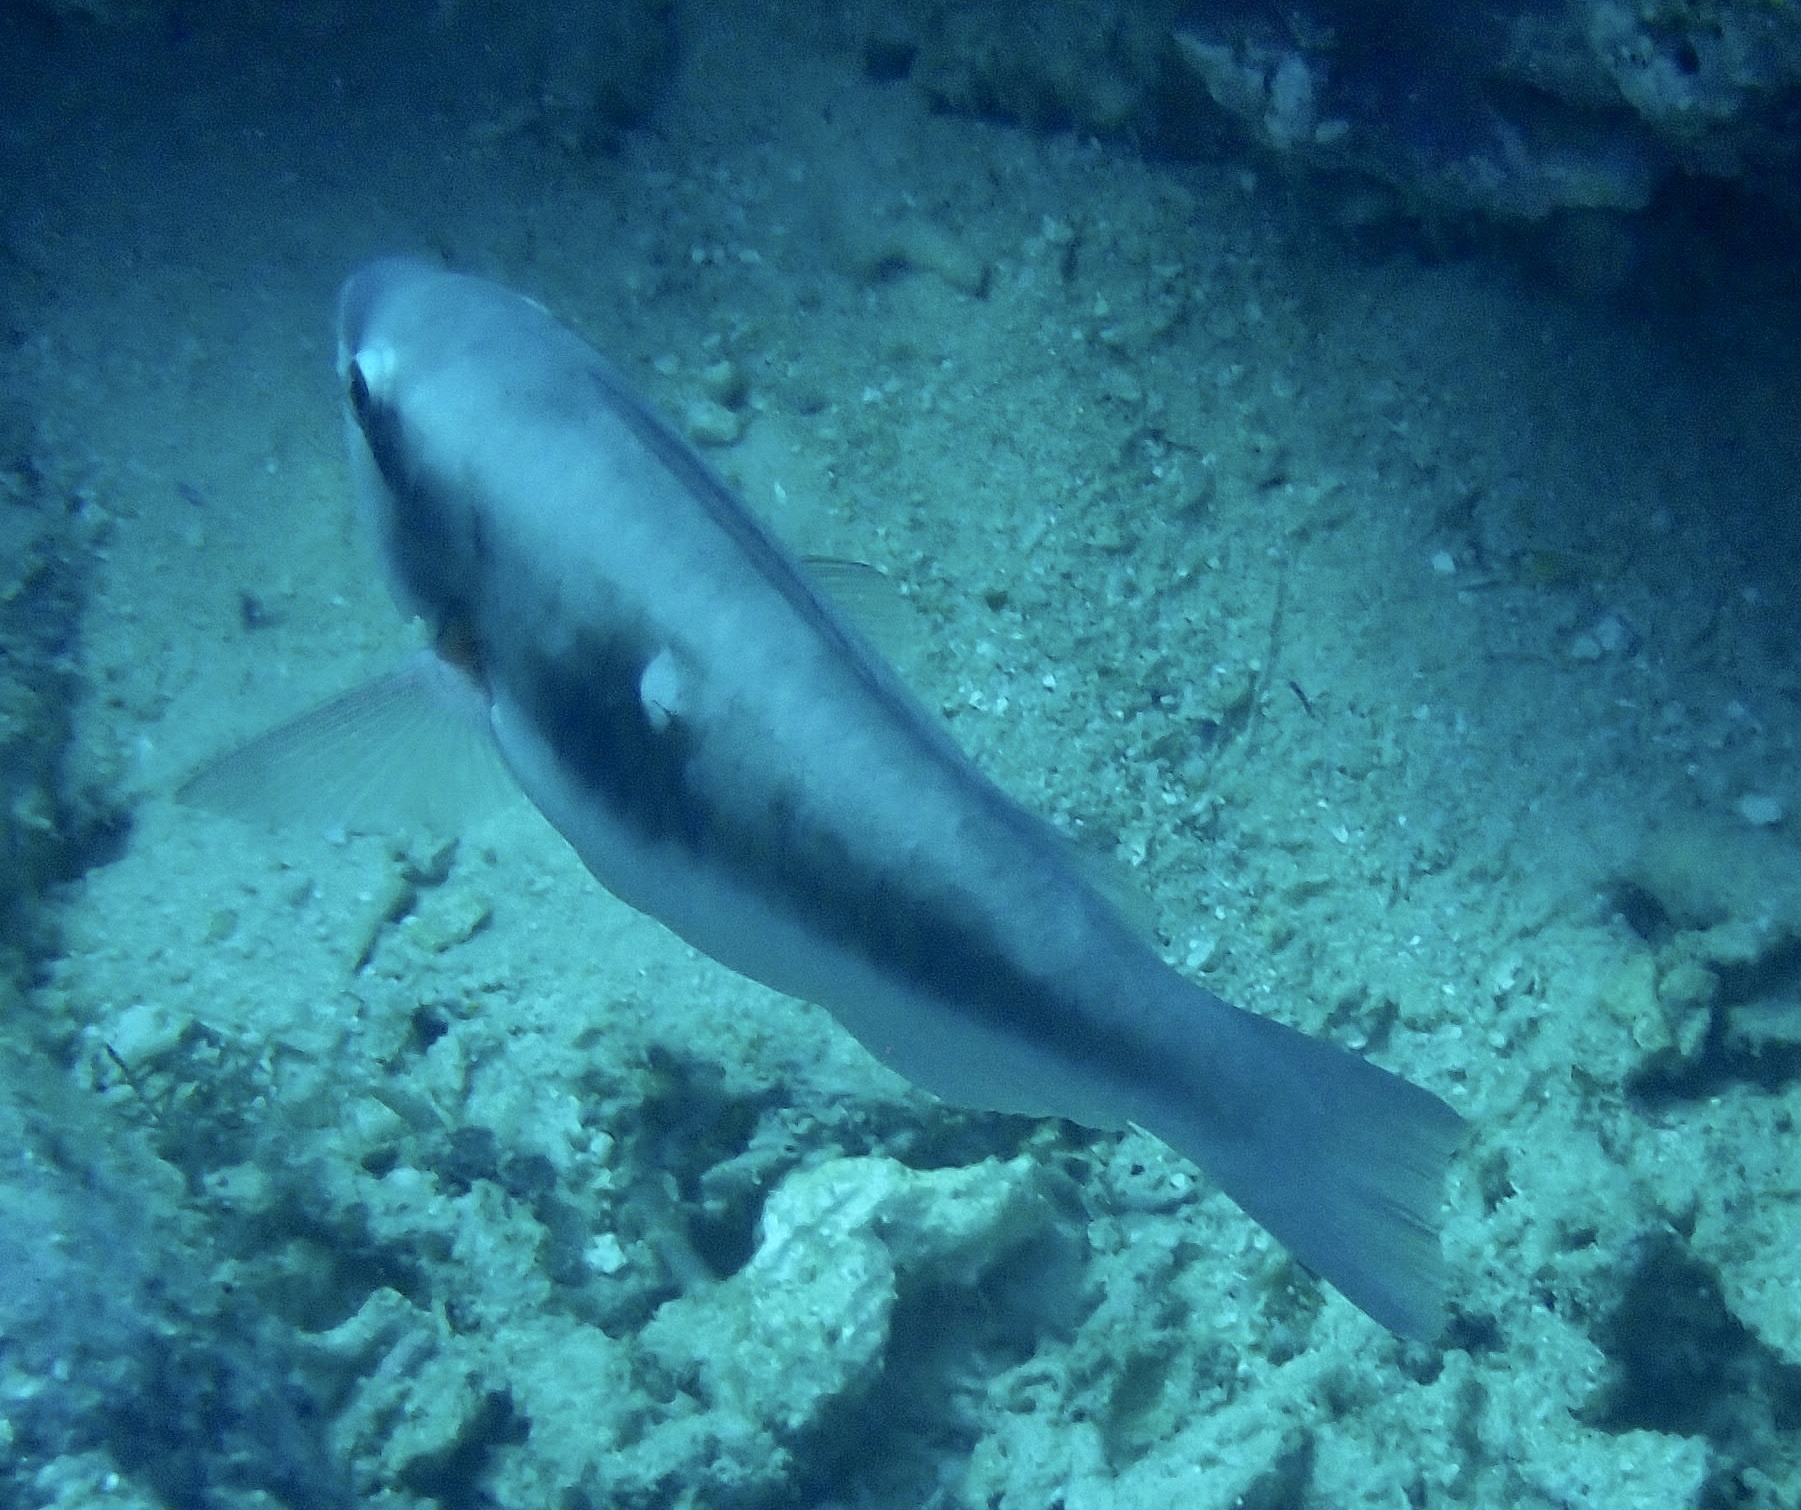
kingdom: Animalia
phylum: Chordata
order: Perciformes
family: Scaridae
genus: Scarus
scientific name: Scarus forsteni
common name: Forsten's parrotfish
